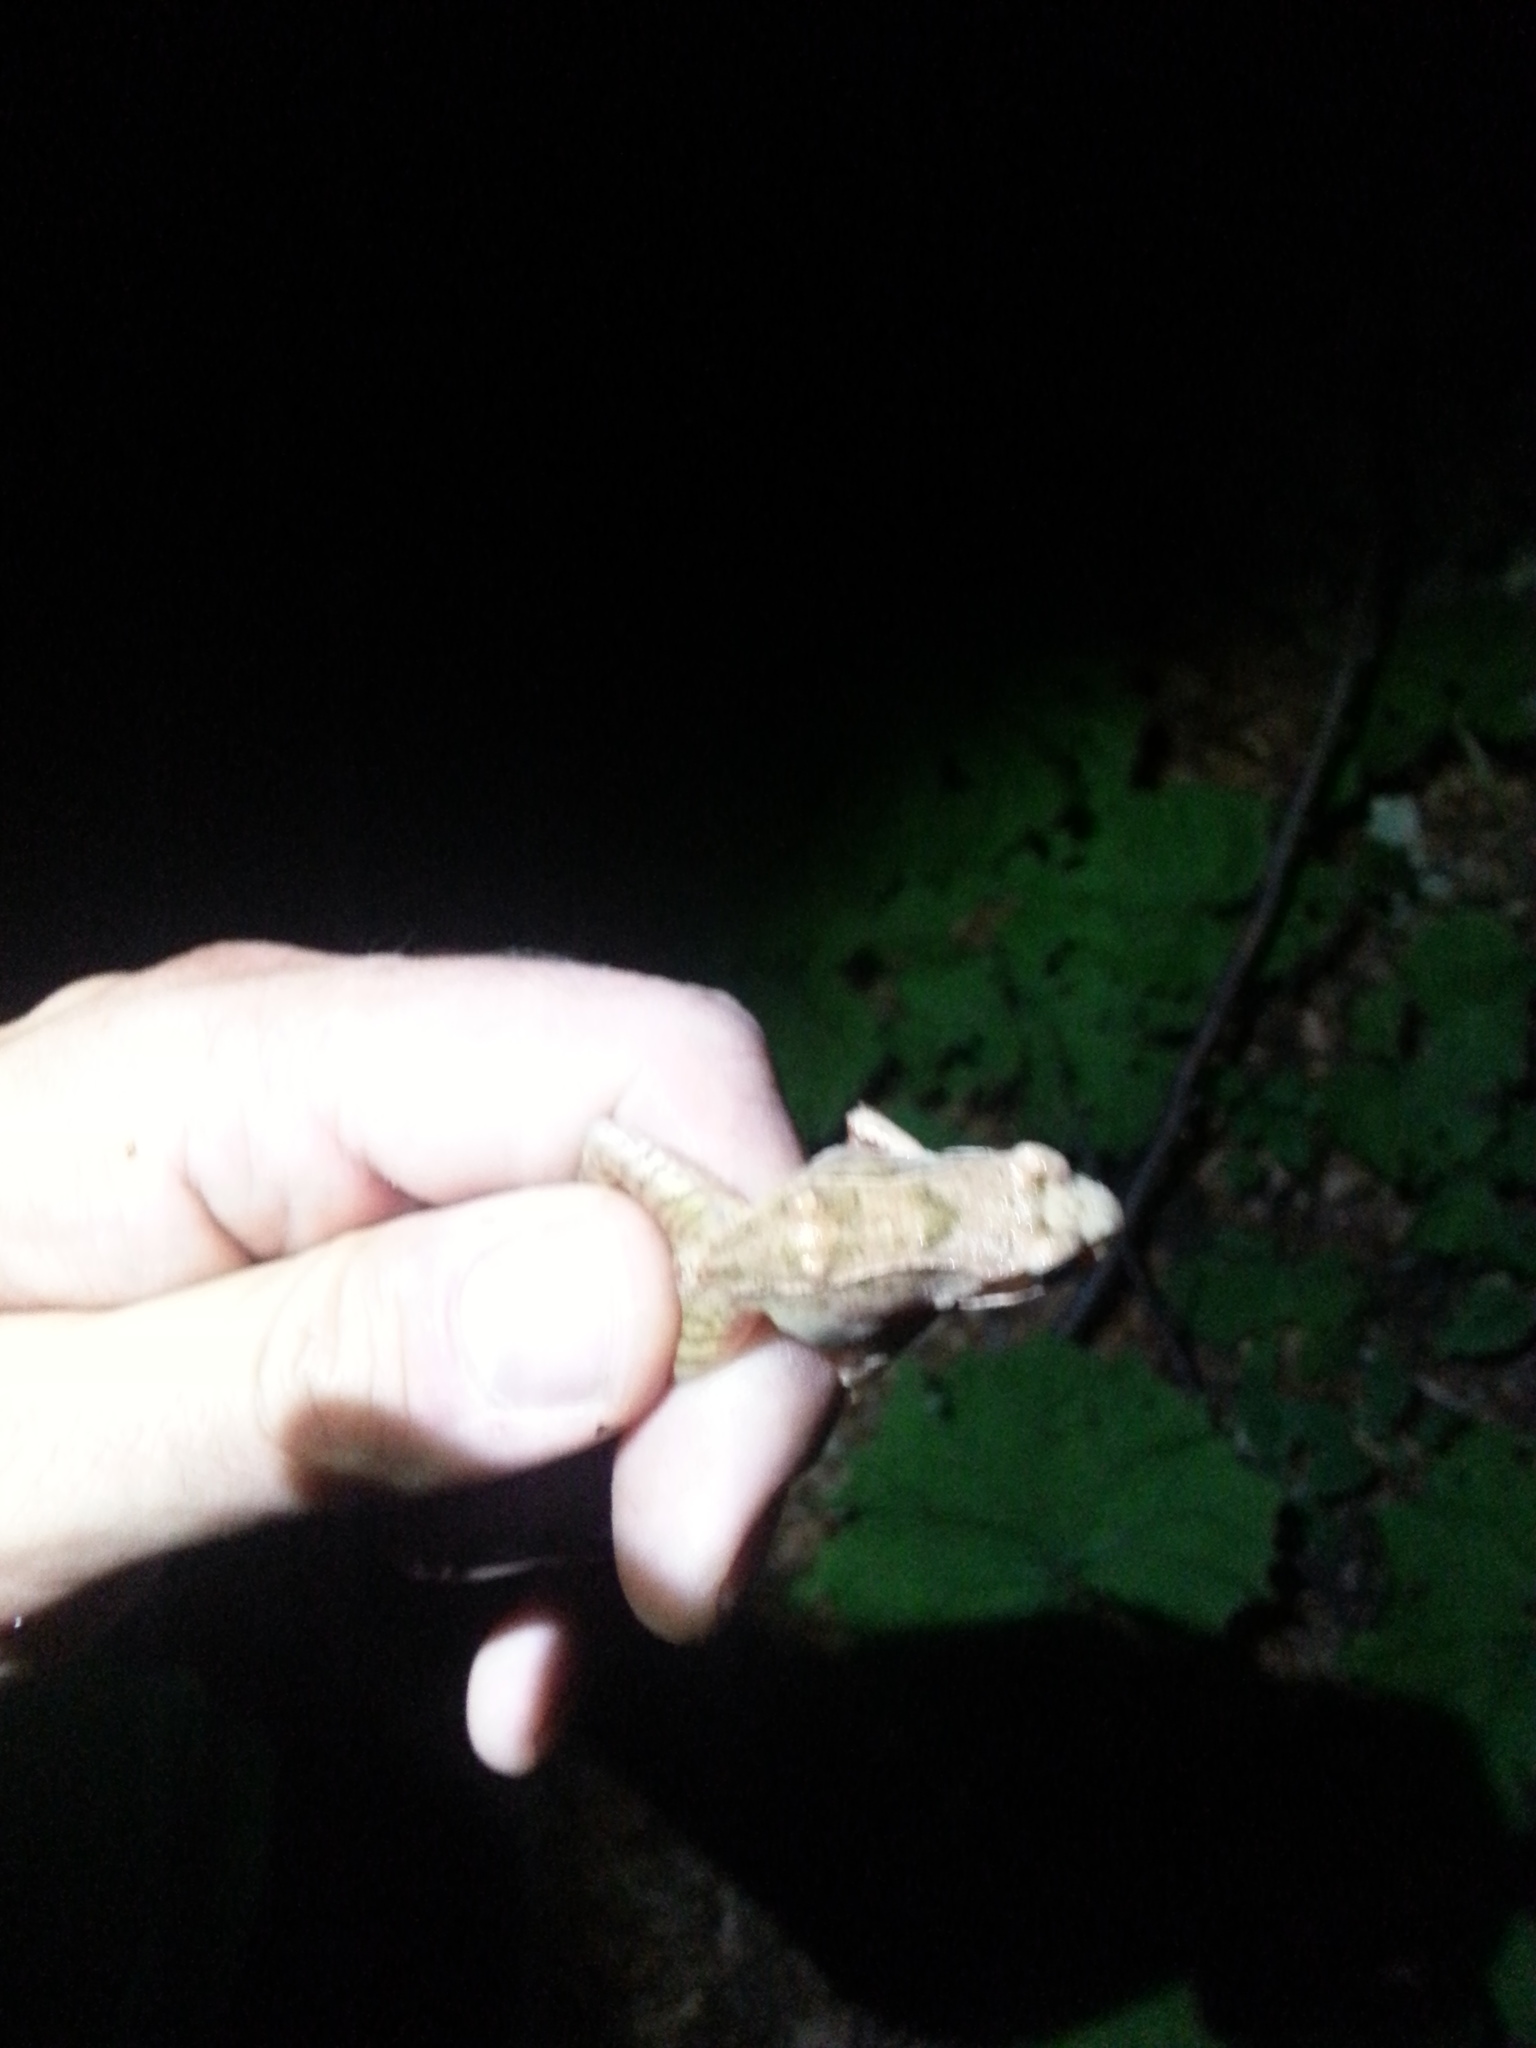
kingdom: Animalia
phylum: Chordata
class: Amphibia
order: Anura
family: Ranidae
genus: Rana
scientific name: Rana temporaria
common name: Common frog
